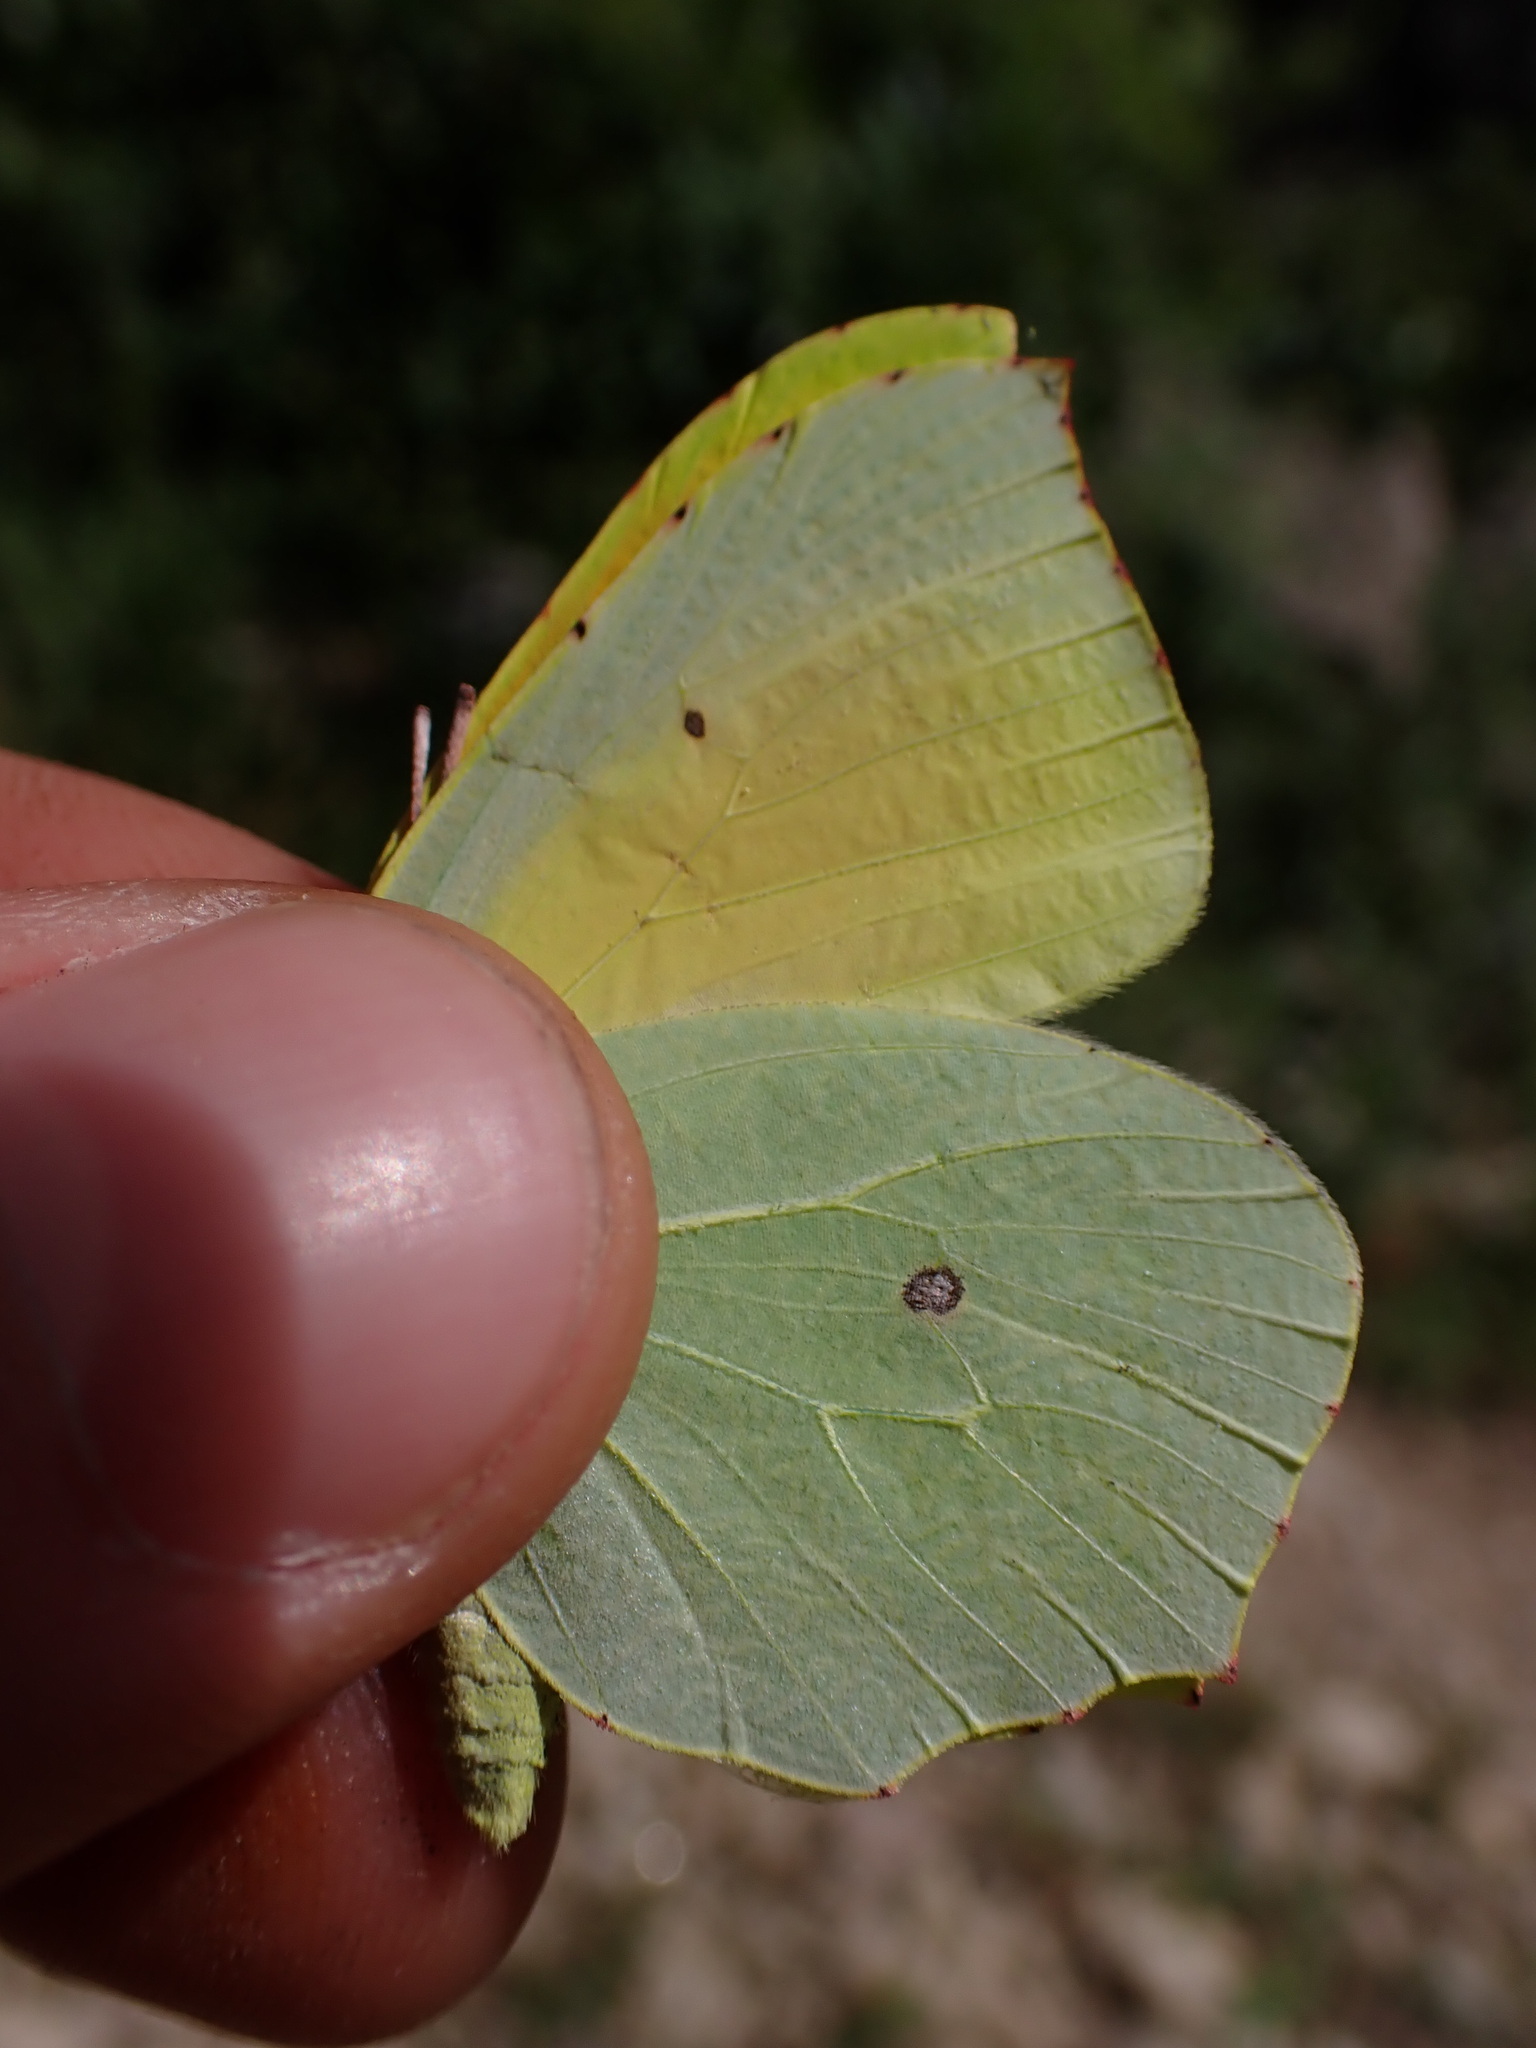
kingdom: Animalia
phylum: Arthropoda
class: Insecta
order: Lepidoptera
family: Pieridae
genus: Gonepteryx
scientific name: Gonepteryx cleopatra
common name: Cleopatra
